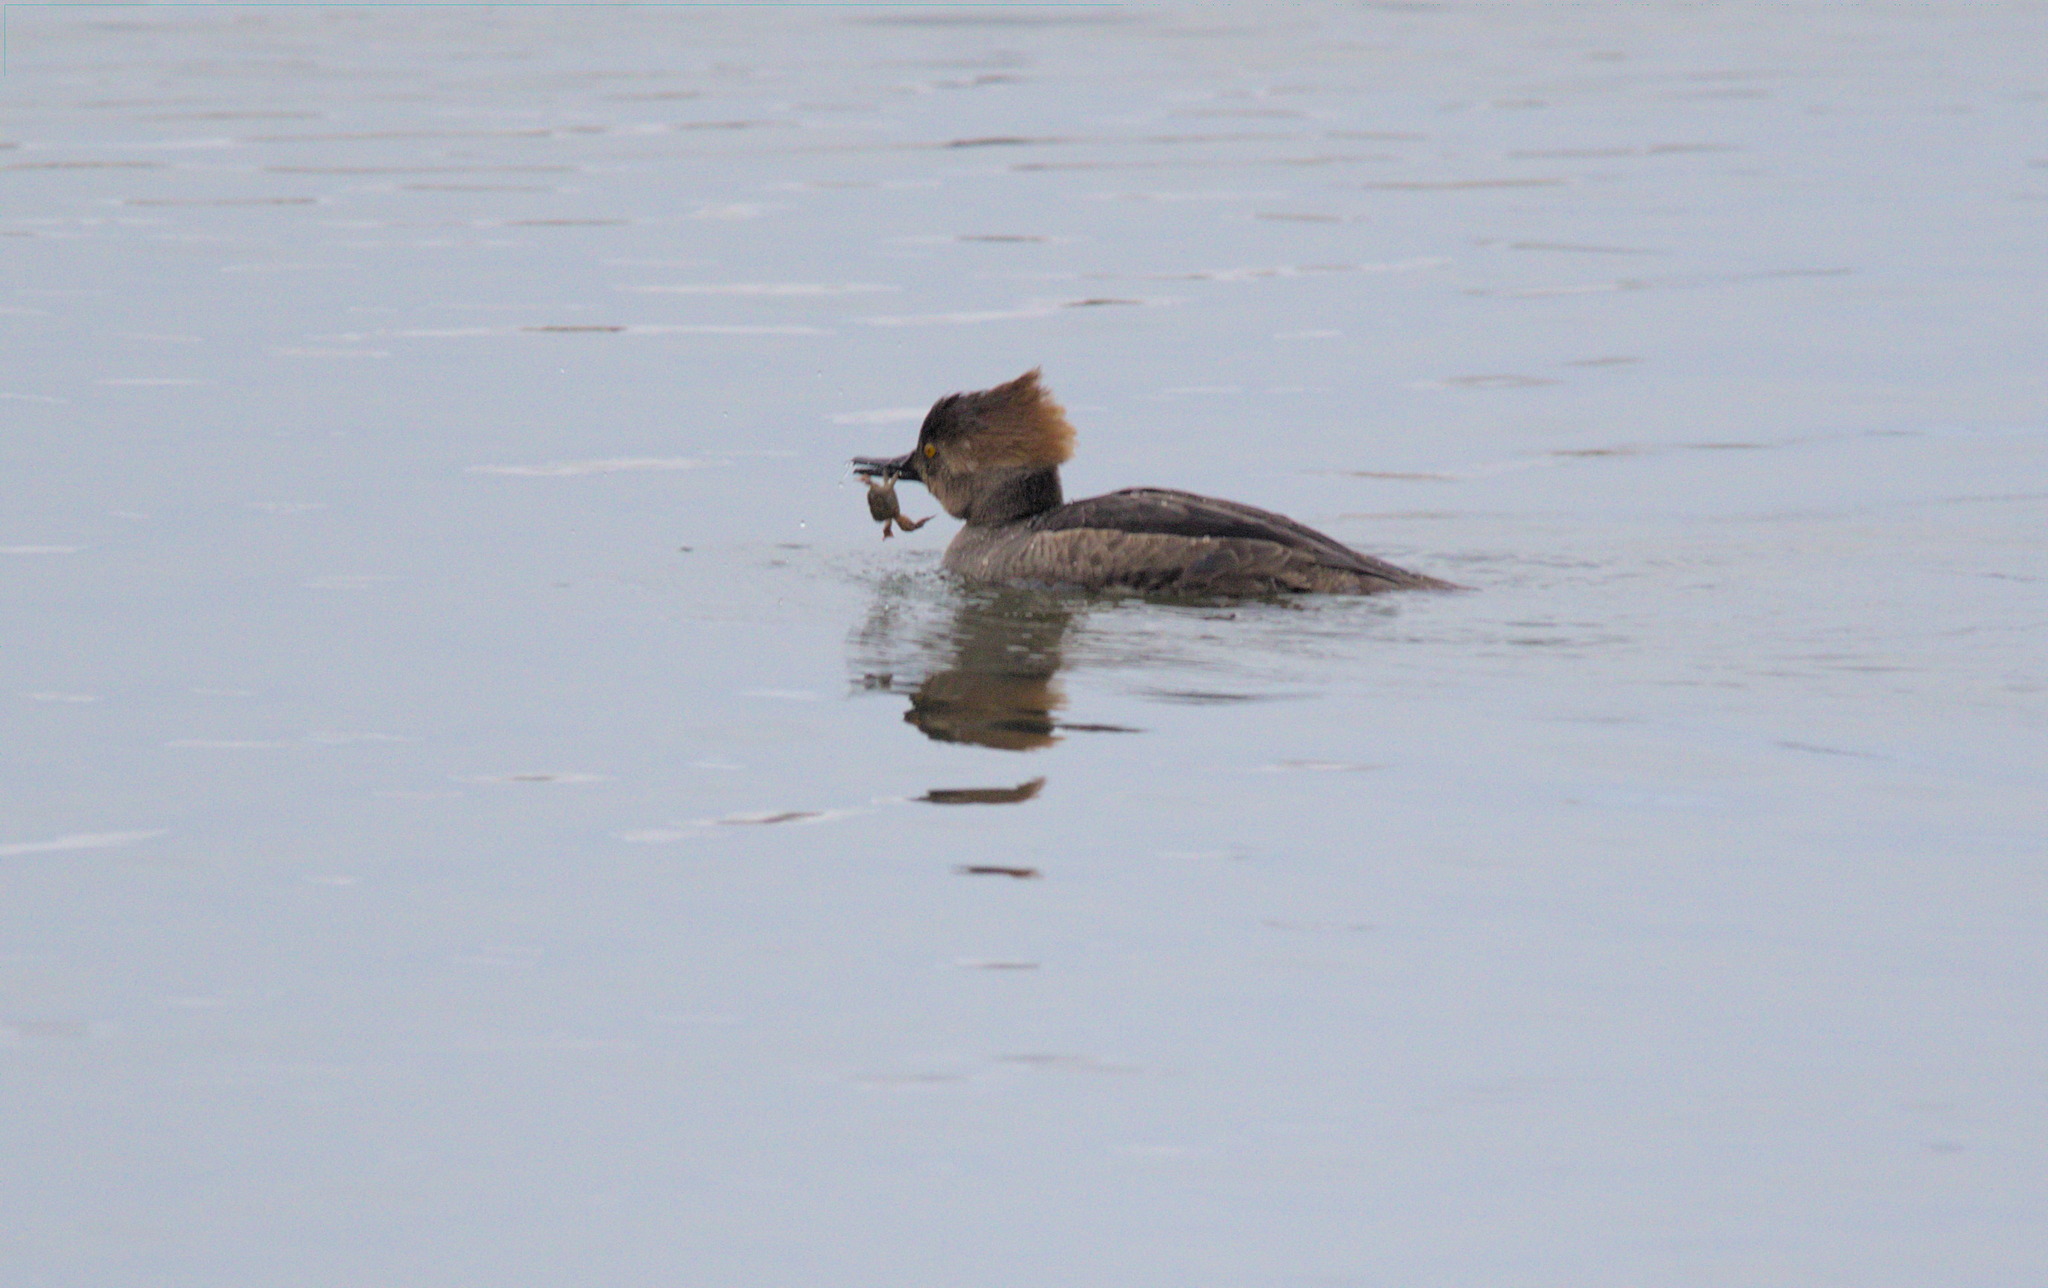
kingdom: Animalia
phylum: Chordata
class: Aves
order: Anseriformes
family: Anatidae
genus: Lophodytes
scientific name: Lophodytes cucullatus
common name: Hooded merganser
